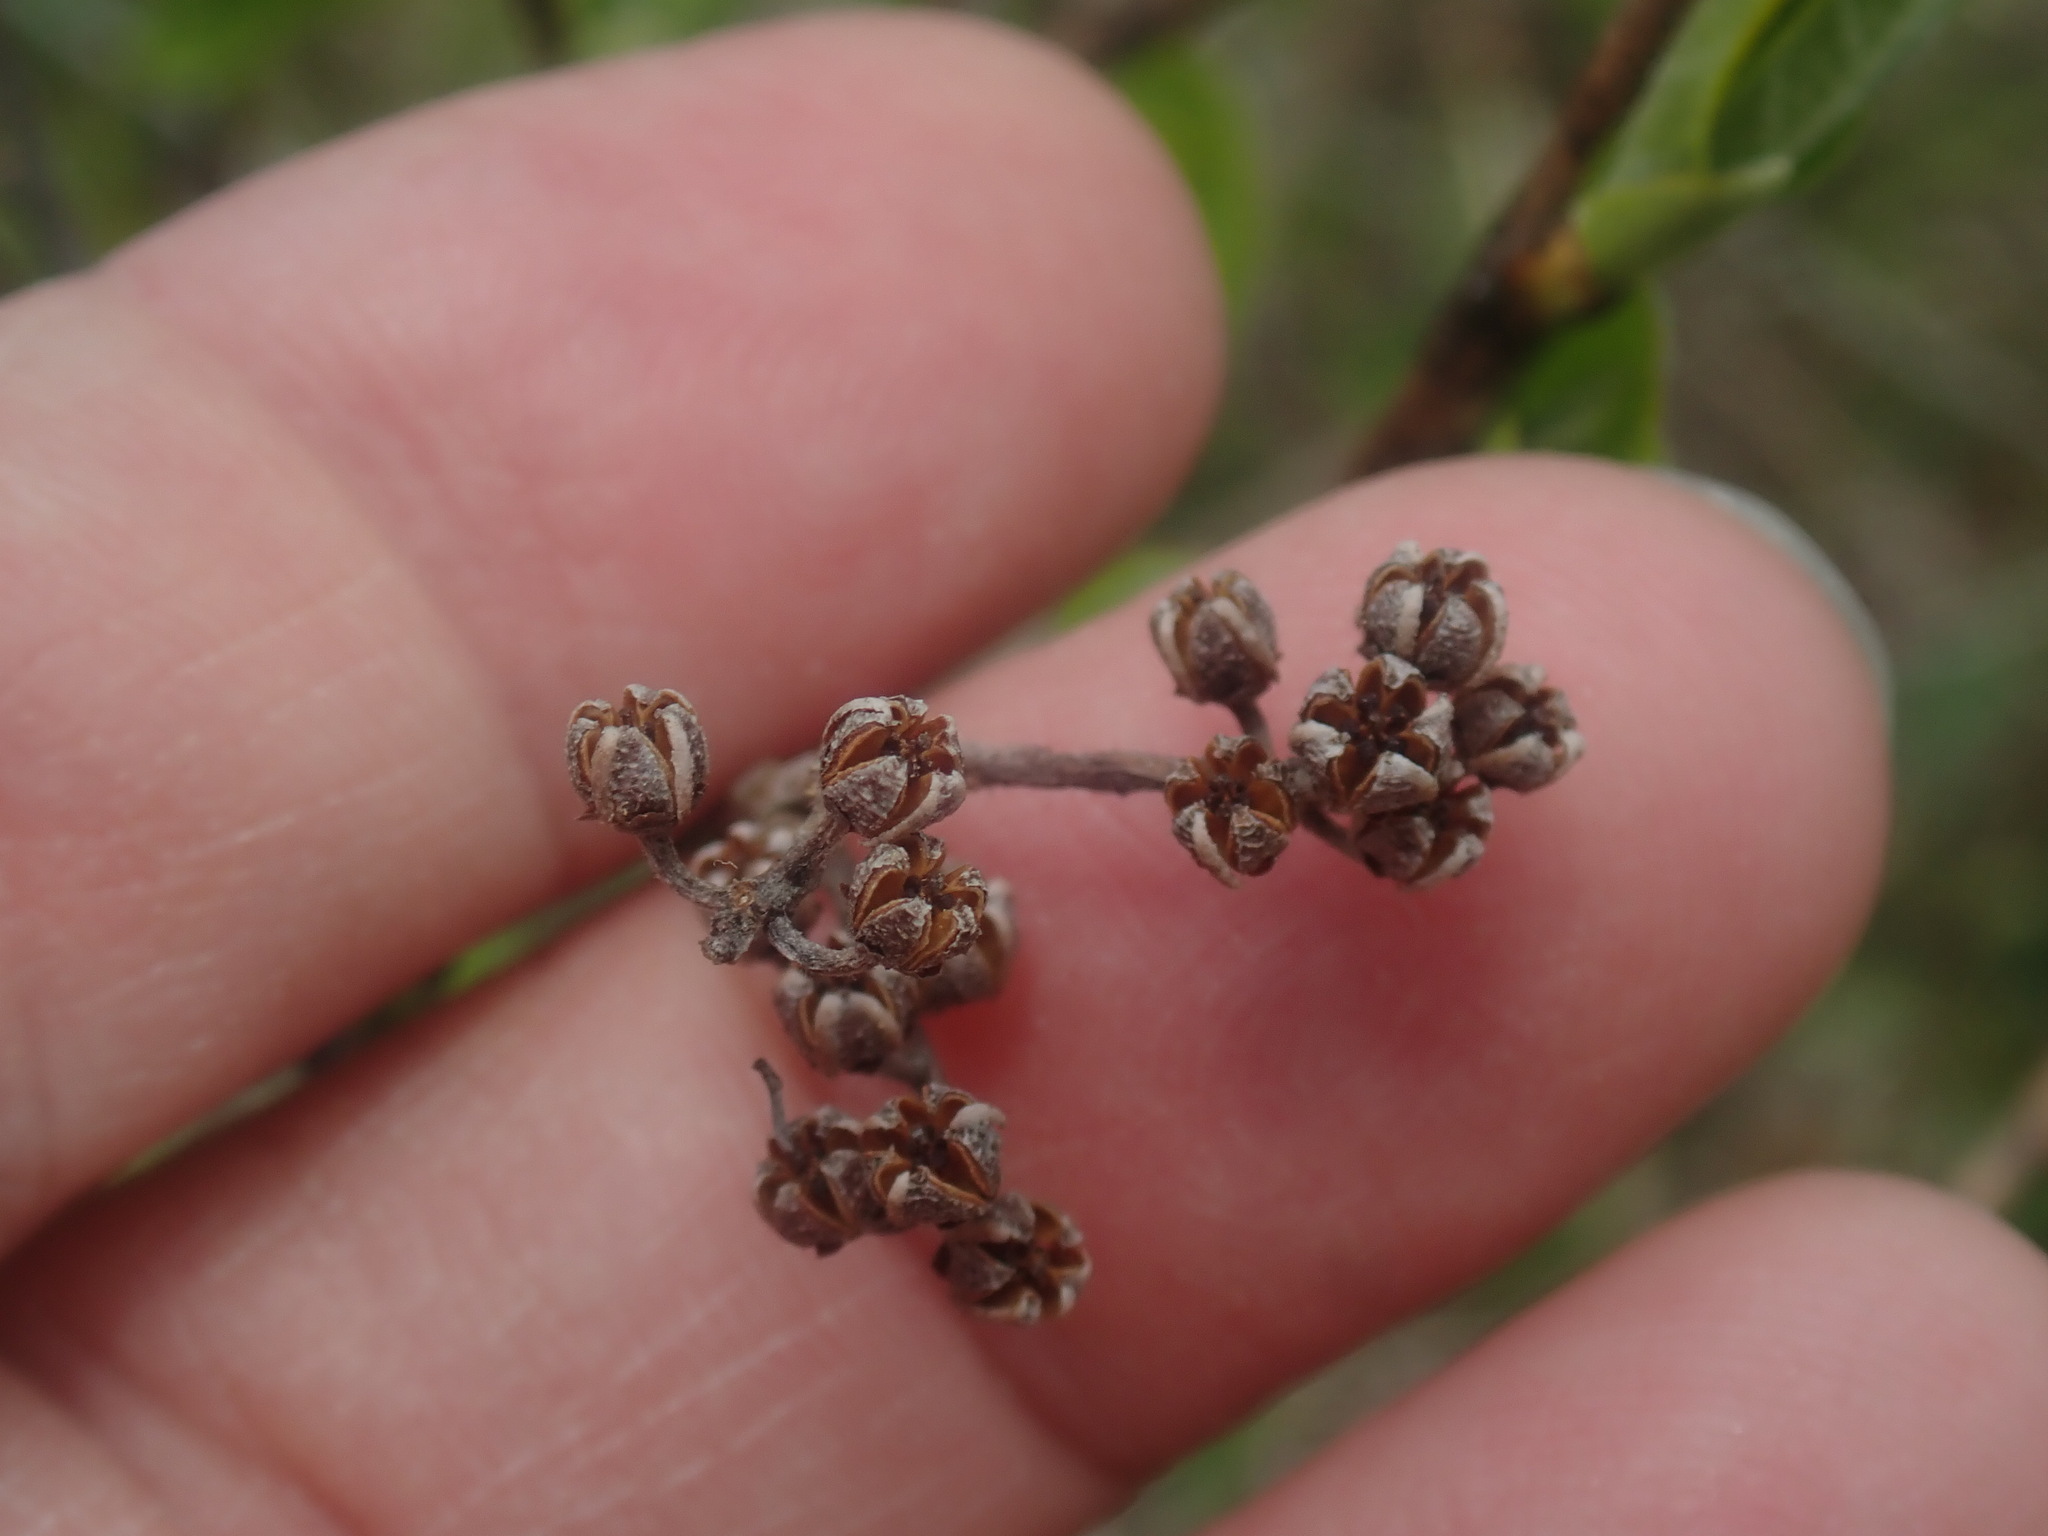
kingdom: Plantae
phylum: Tracheophyta
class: Magnoliopsida
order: Ericales
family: Ericaceae
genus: Lyonia
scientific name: Lyonia ligustrina
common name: Maleberry
